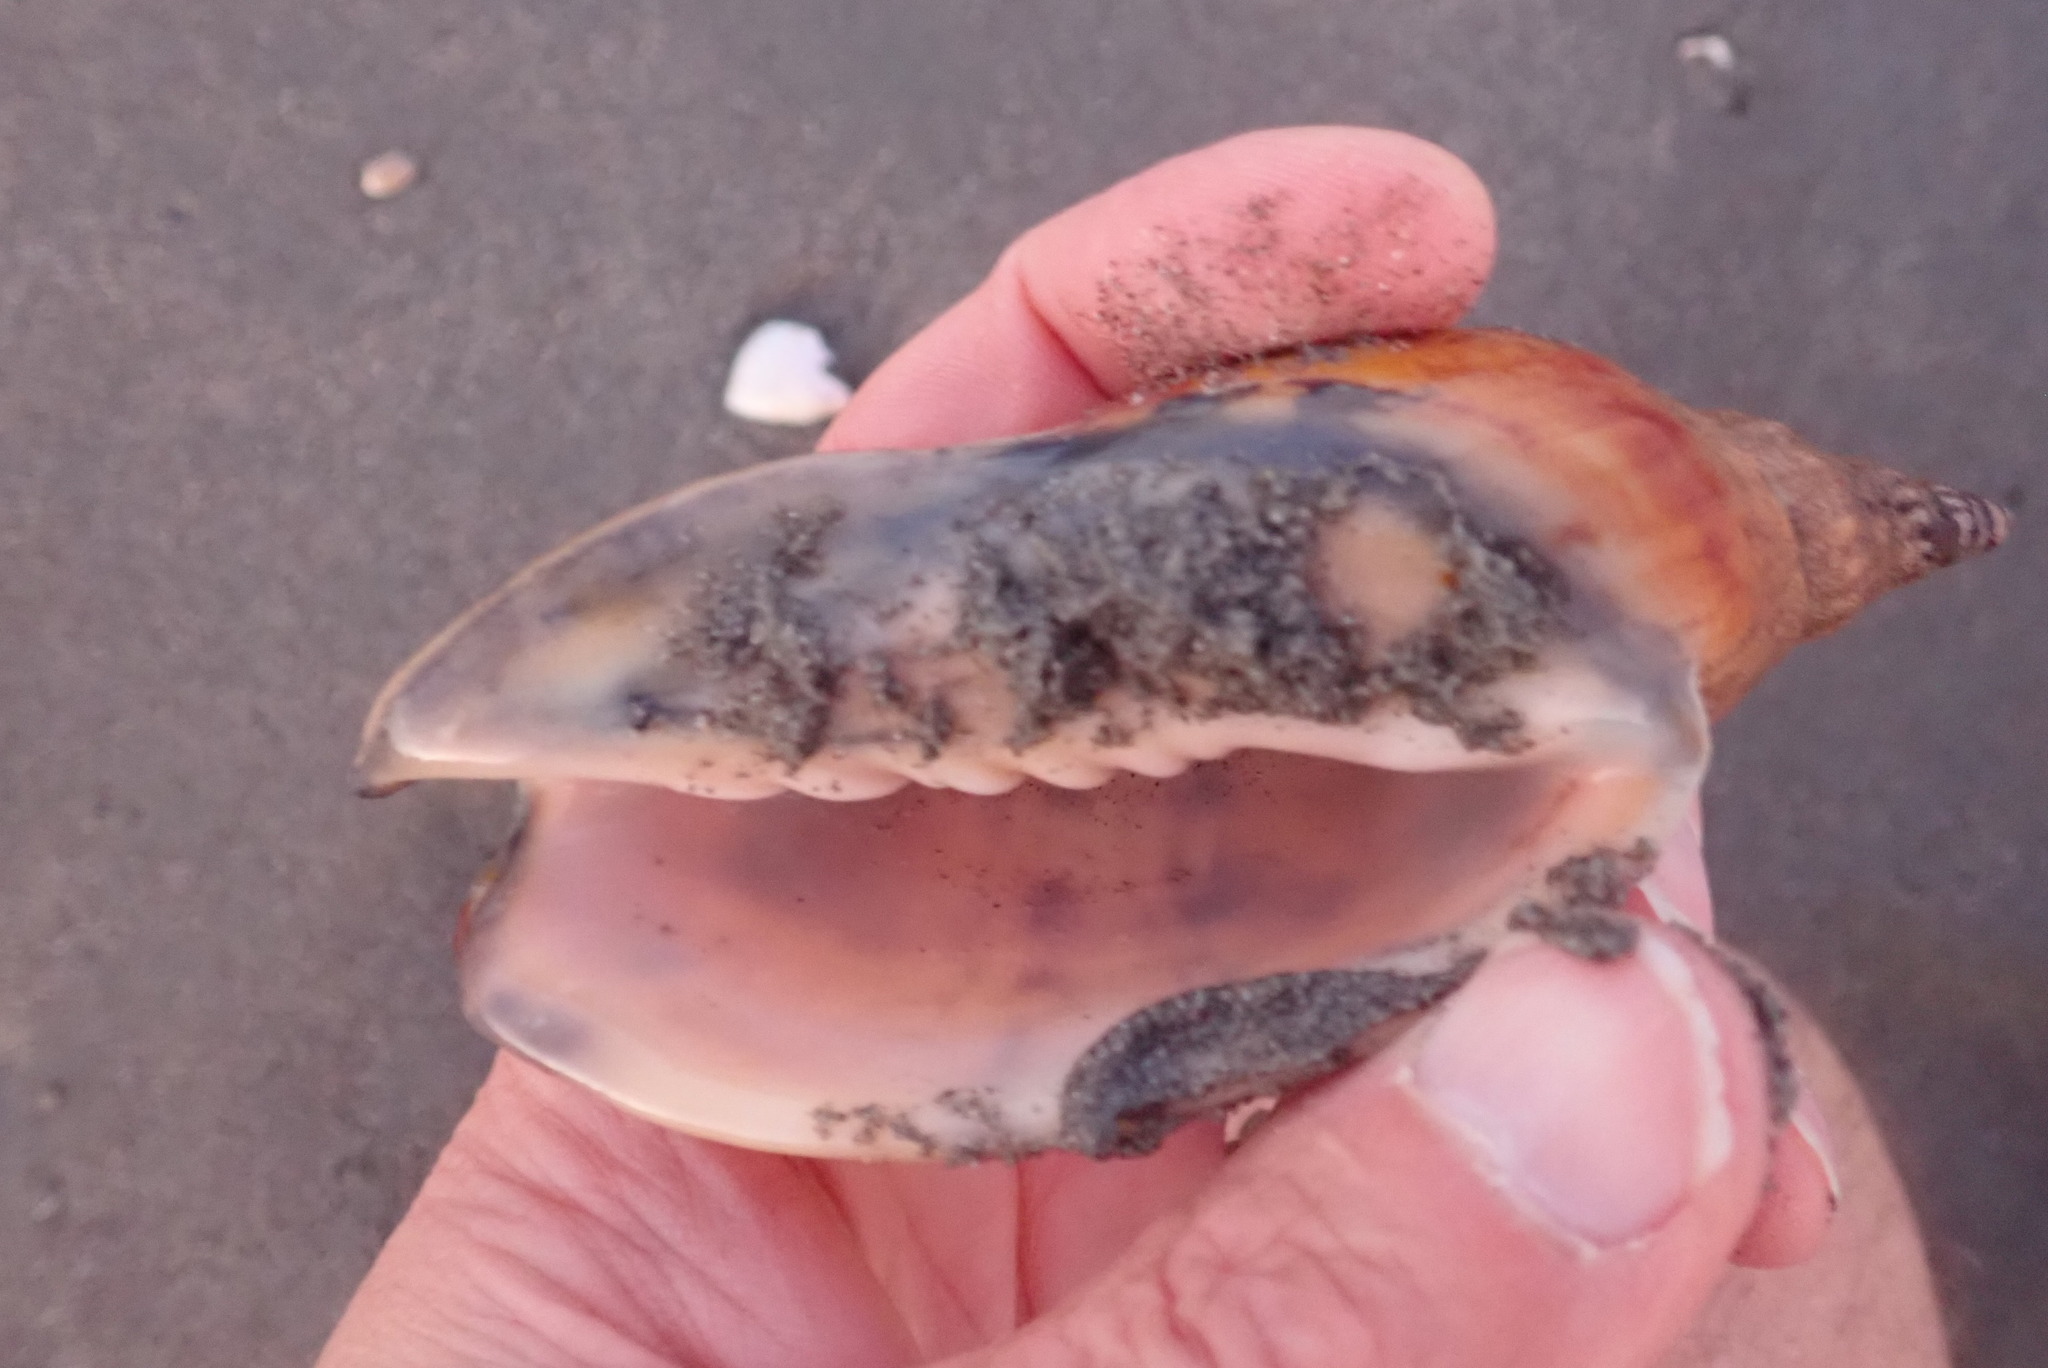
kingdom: Animalia
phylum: Mollusca
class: Gastropoda
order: Neogastropoda
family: Volutidae
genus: Alcithoe
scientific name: Alcithoe arabica
